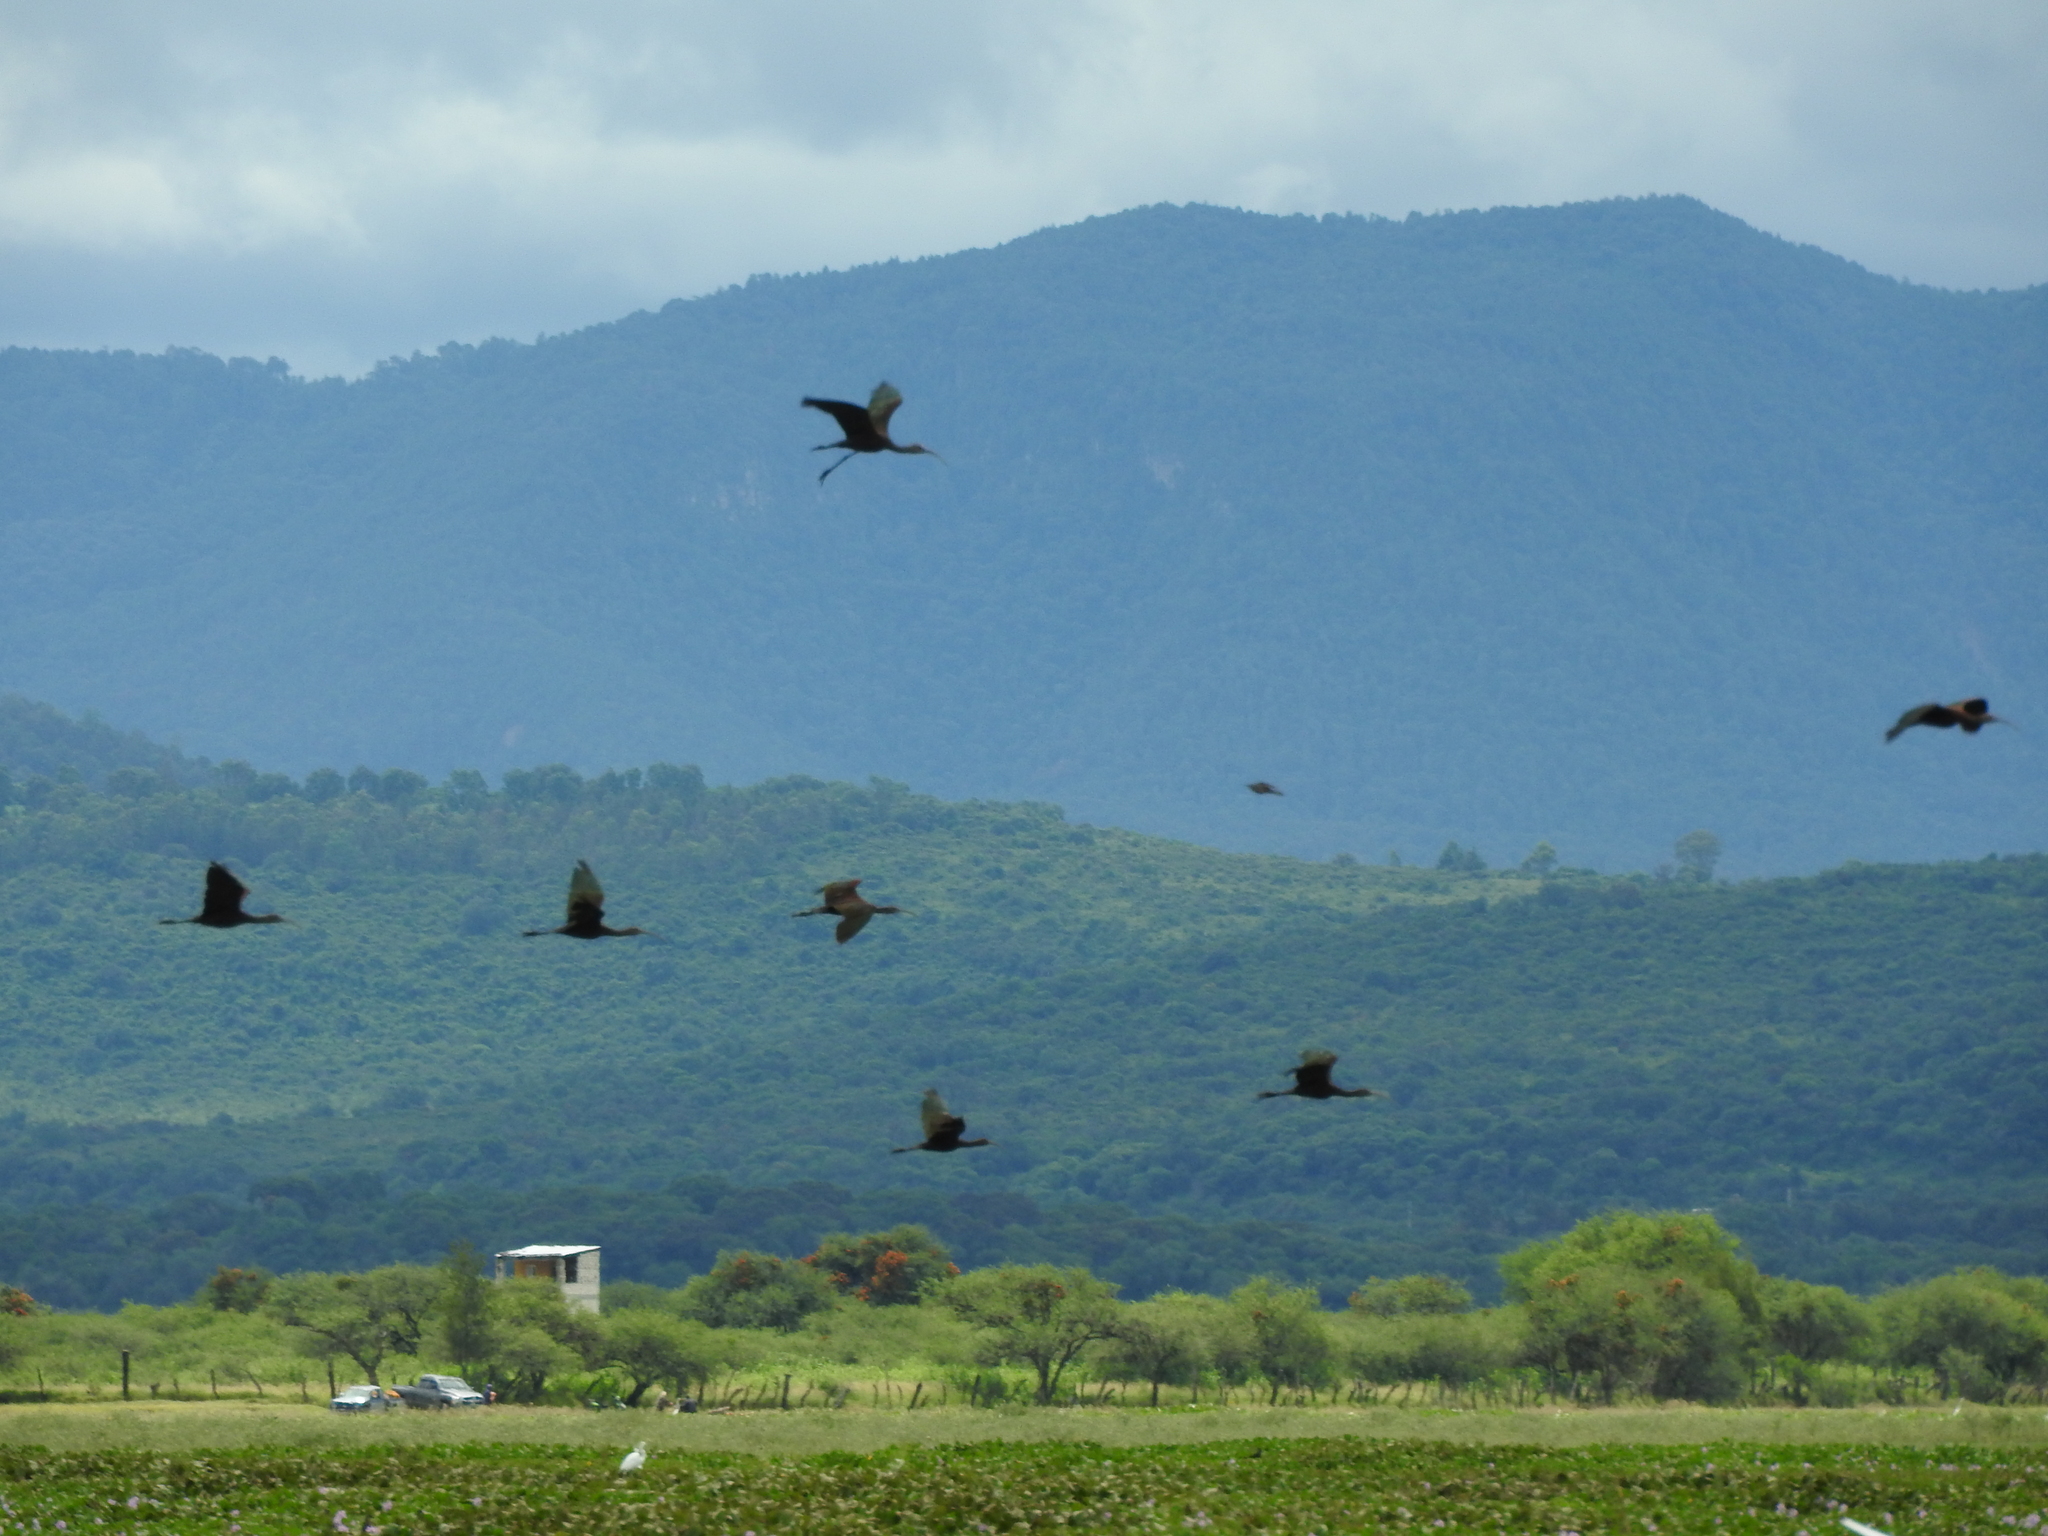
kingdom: Animalia
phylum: Chordata
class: Aves
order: Pelecaniformes
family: Threskiornithidae
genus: Plegadis
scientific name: Plegadis chihi
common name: White-faced ibis
